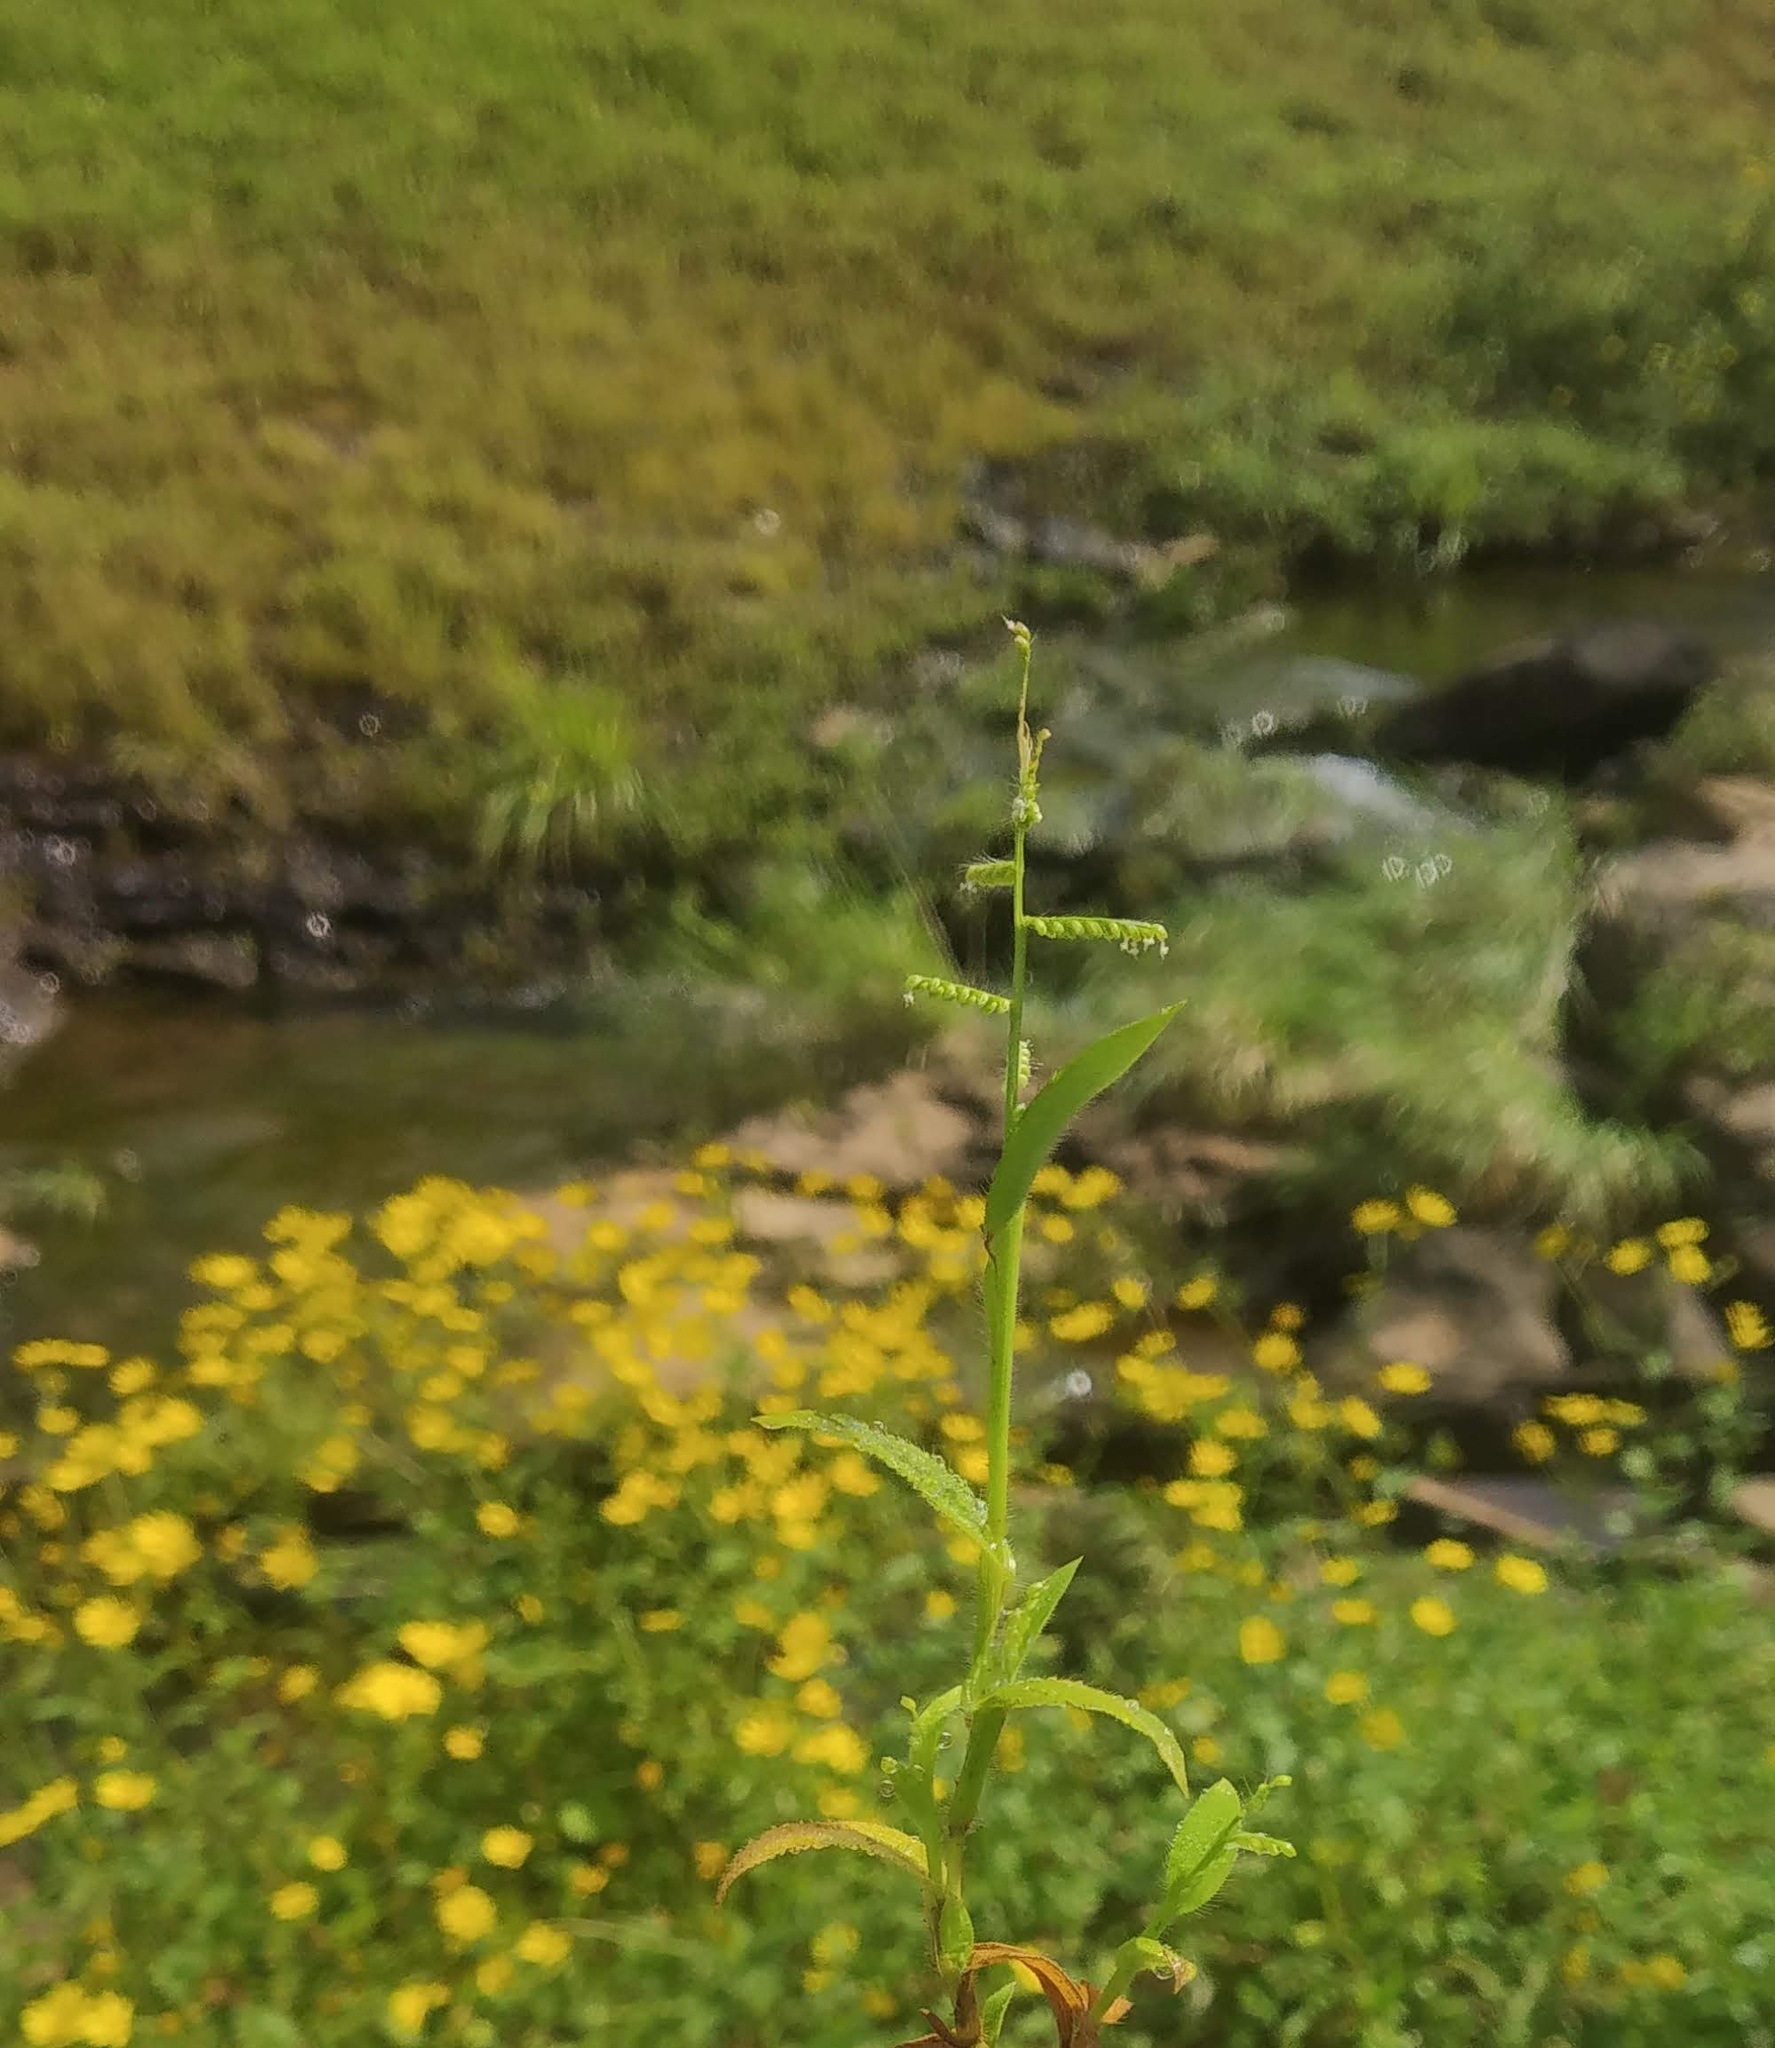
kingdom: Plantae
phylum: Tracheophyta
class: Liliopsida
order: Poales
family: Poaceae
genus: Paspalum
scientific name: Paspalum canarae
